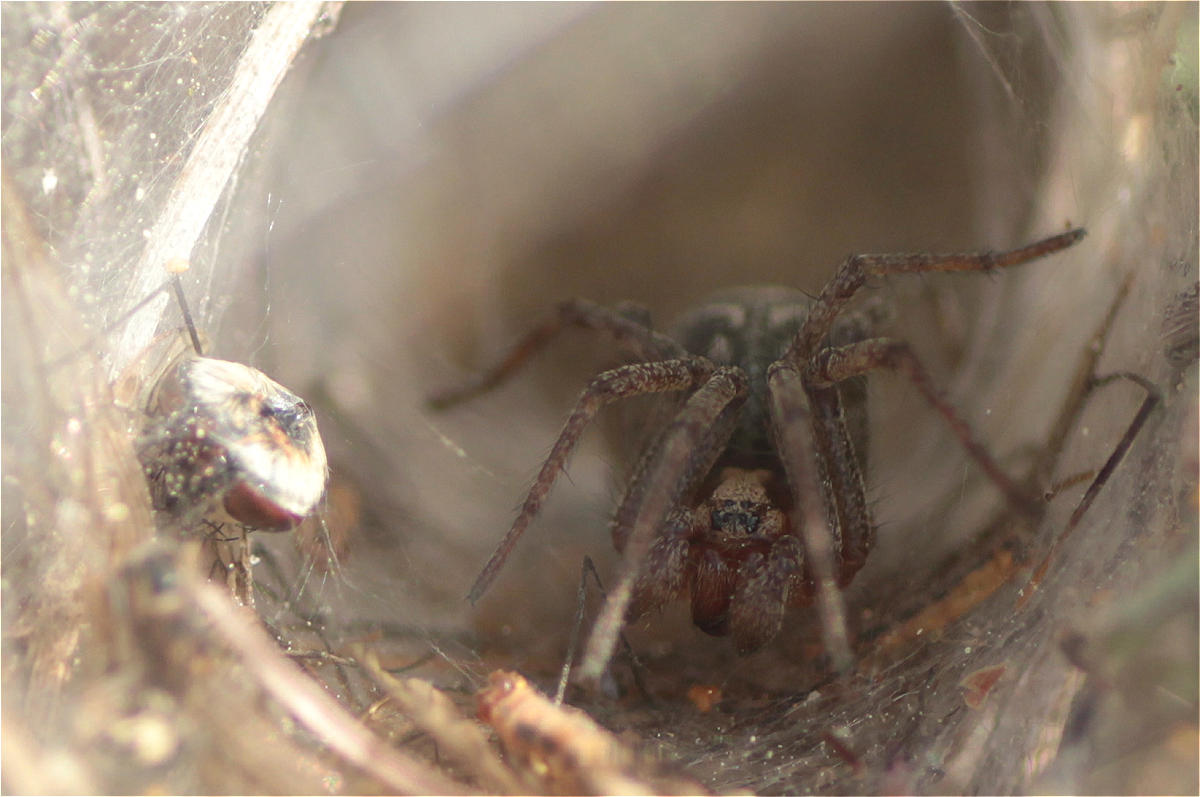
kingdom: Animalia
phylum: Arthropoda
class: Arachnida
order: Araneae
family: Agelenidae
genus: Agelena
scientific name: Agelena labyrinthica
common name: Labyrinth spider
